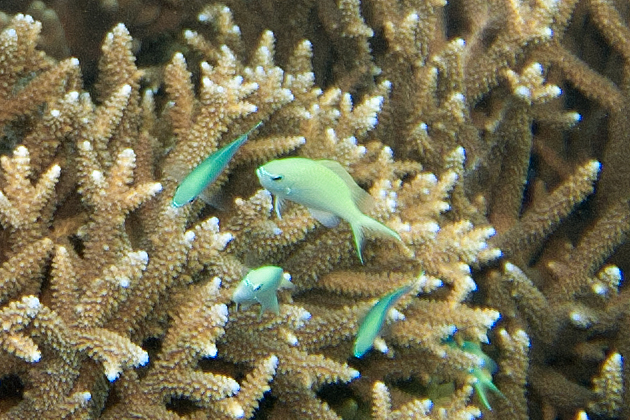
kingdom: Animalia
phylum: Chordata
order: Perciformes
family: Pomacentridae
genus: Chromis
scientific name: Chromis atripectoralis
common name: Black-axil chromis
